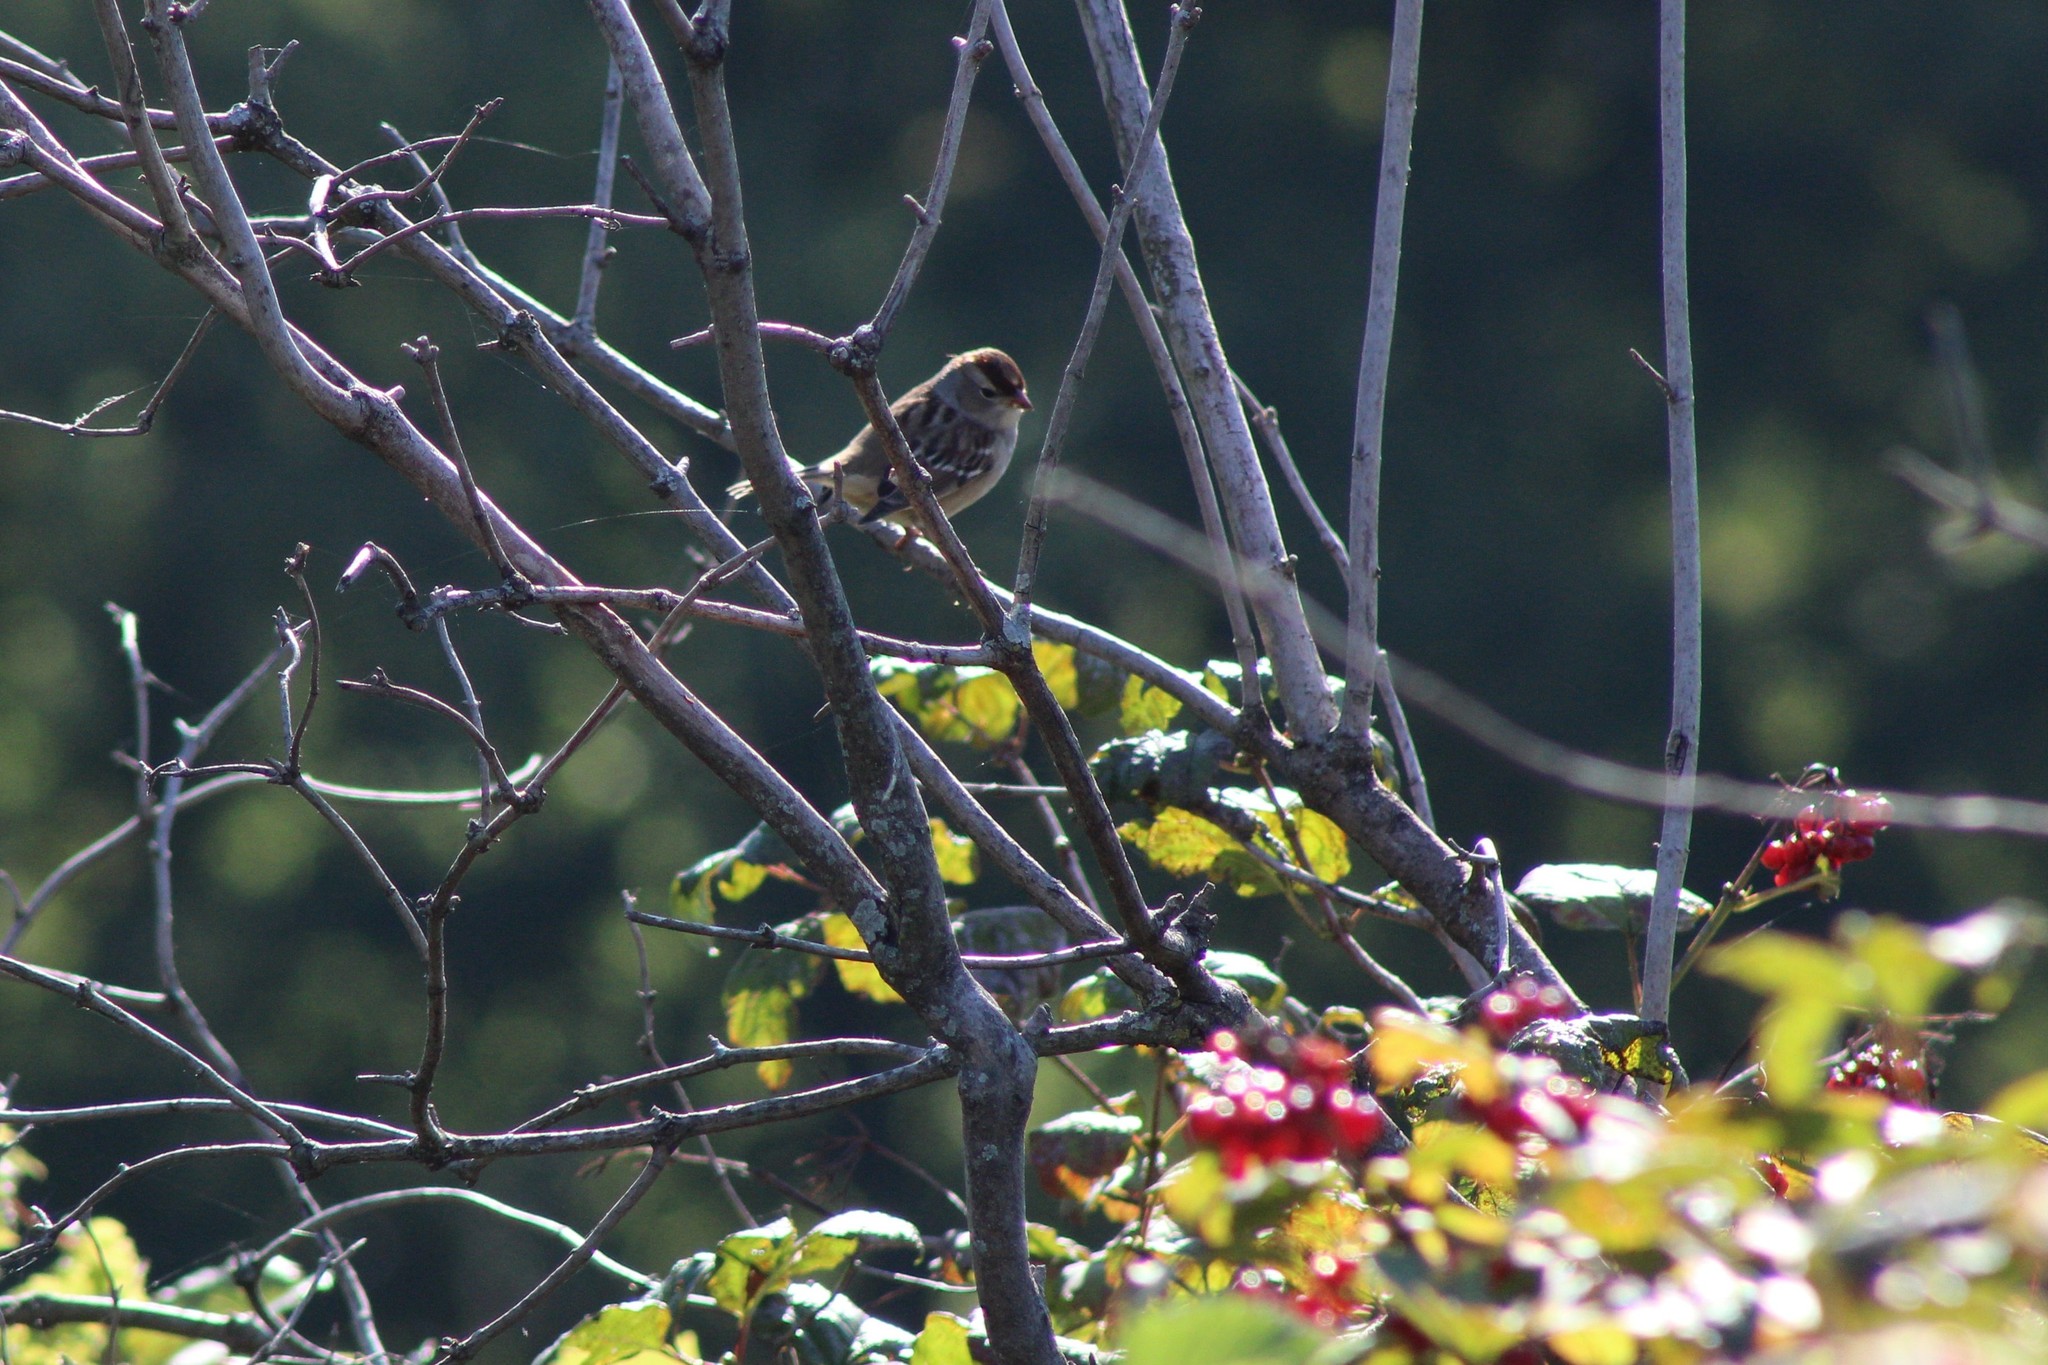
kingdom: Animalia
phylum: Chordata
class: Aves
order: Passeriformes
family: Passerellidae
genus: Zonotrichia
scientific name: Zonotrichia leucophrys
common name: White-crowned sparrow
